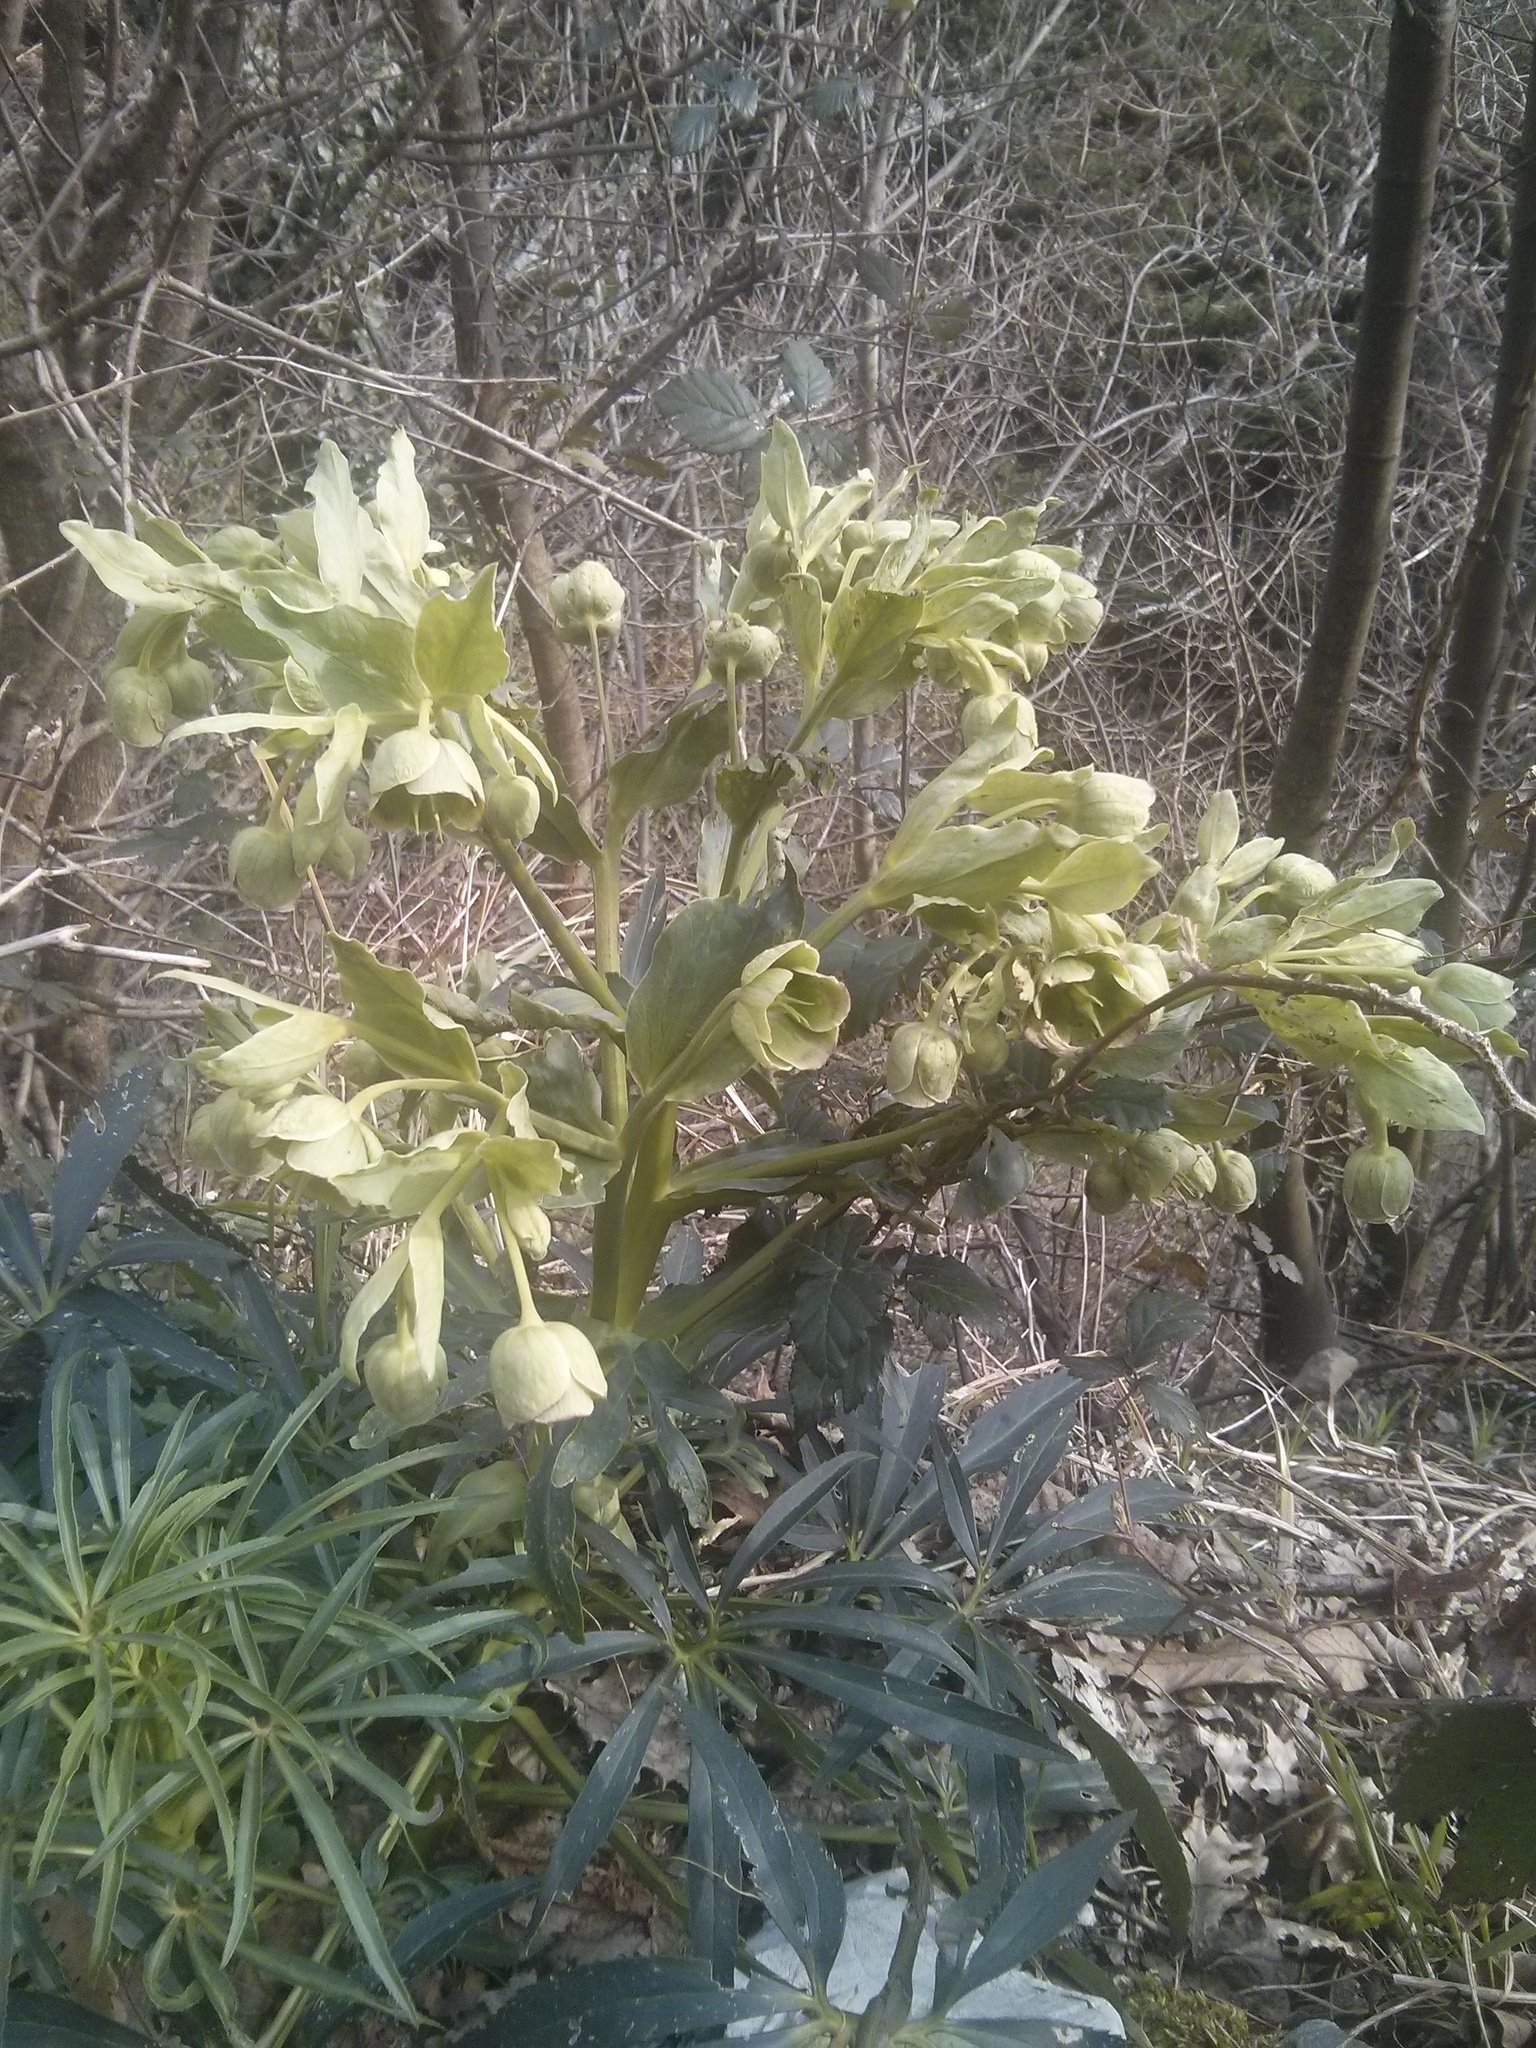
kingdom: Plantae
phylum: Tracheophyta
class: Magnoliopsida
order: Ranunculales
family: Ranunculaceae
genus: Helleborus
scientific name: Helleborus foetidus
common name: Stinking hellebore
